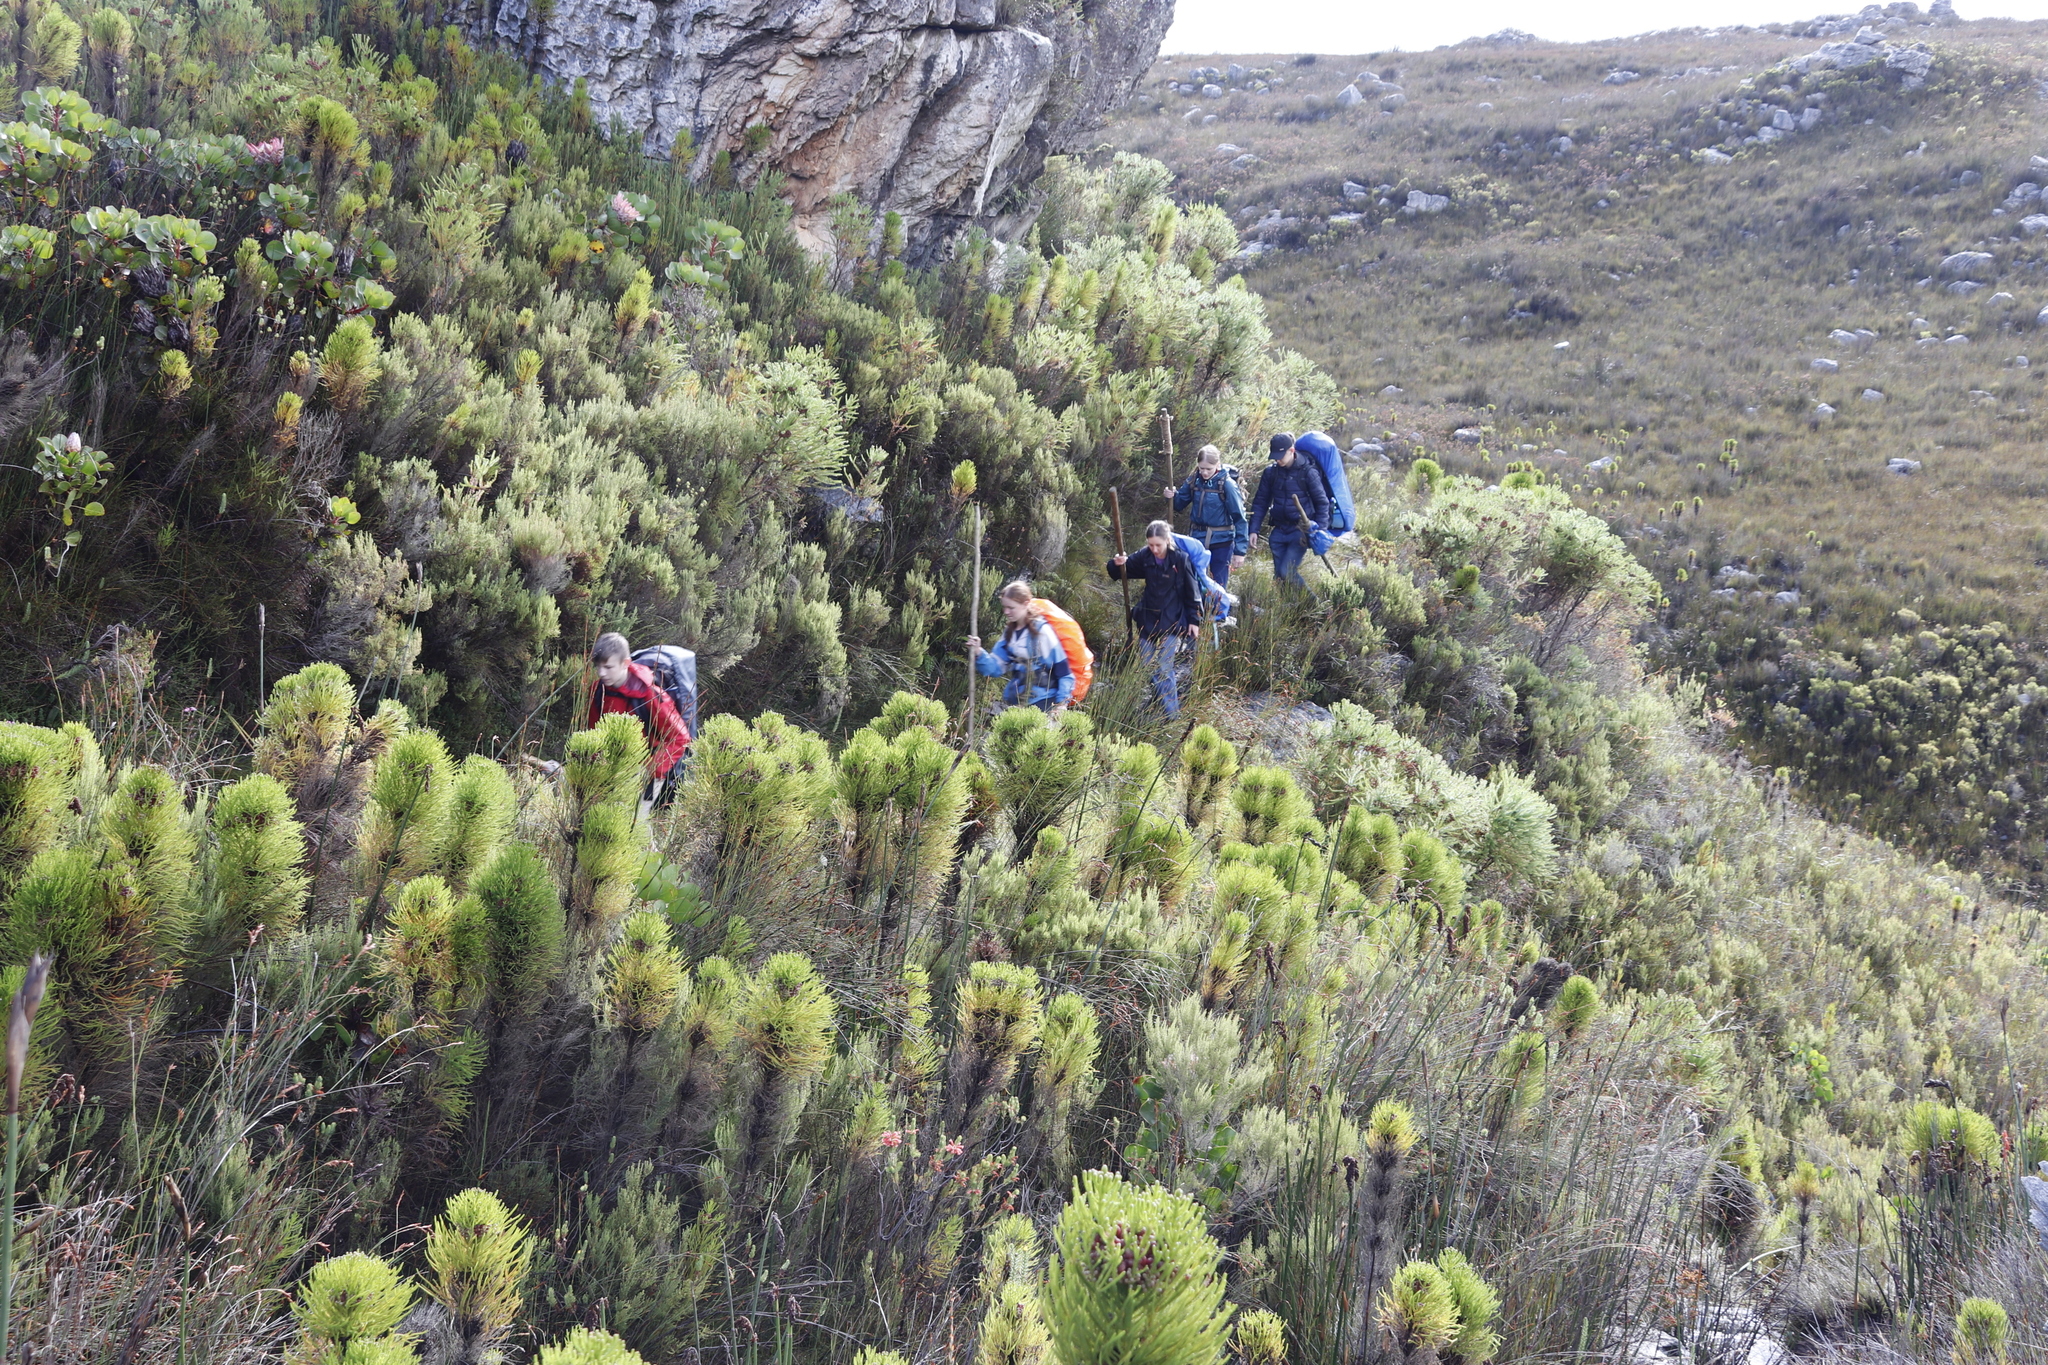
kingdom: Plantae
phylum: Tracheophyta
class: Magnoliopsida
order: Bruniales
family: Bruniaceae
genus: Berzelia
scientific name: Berzelia alopecurioides
